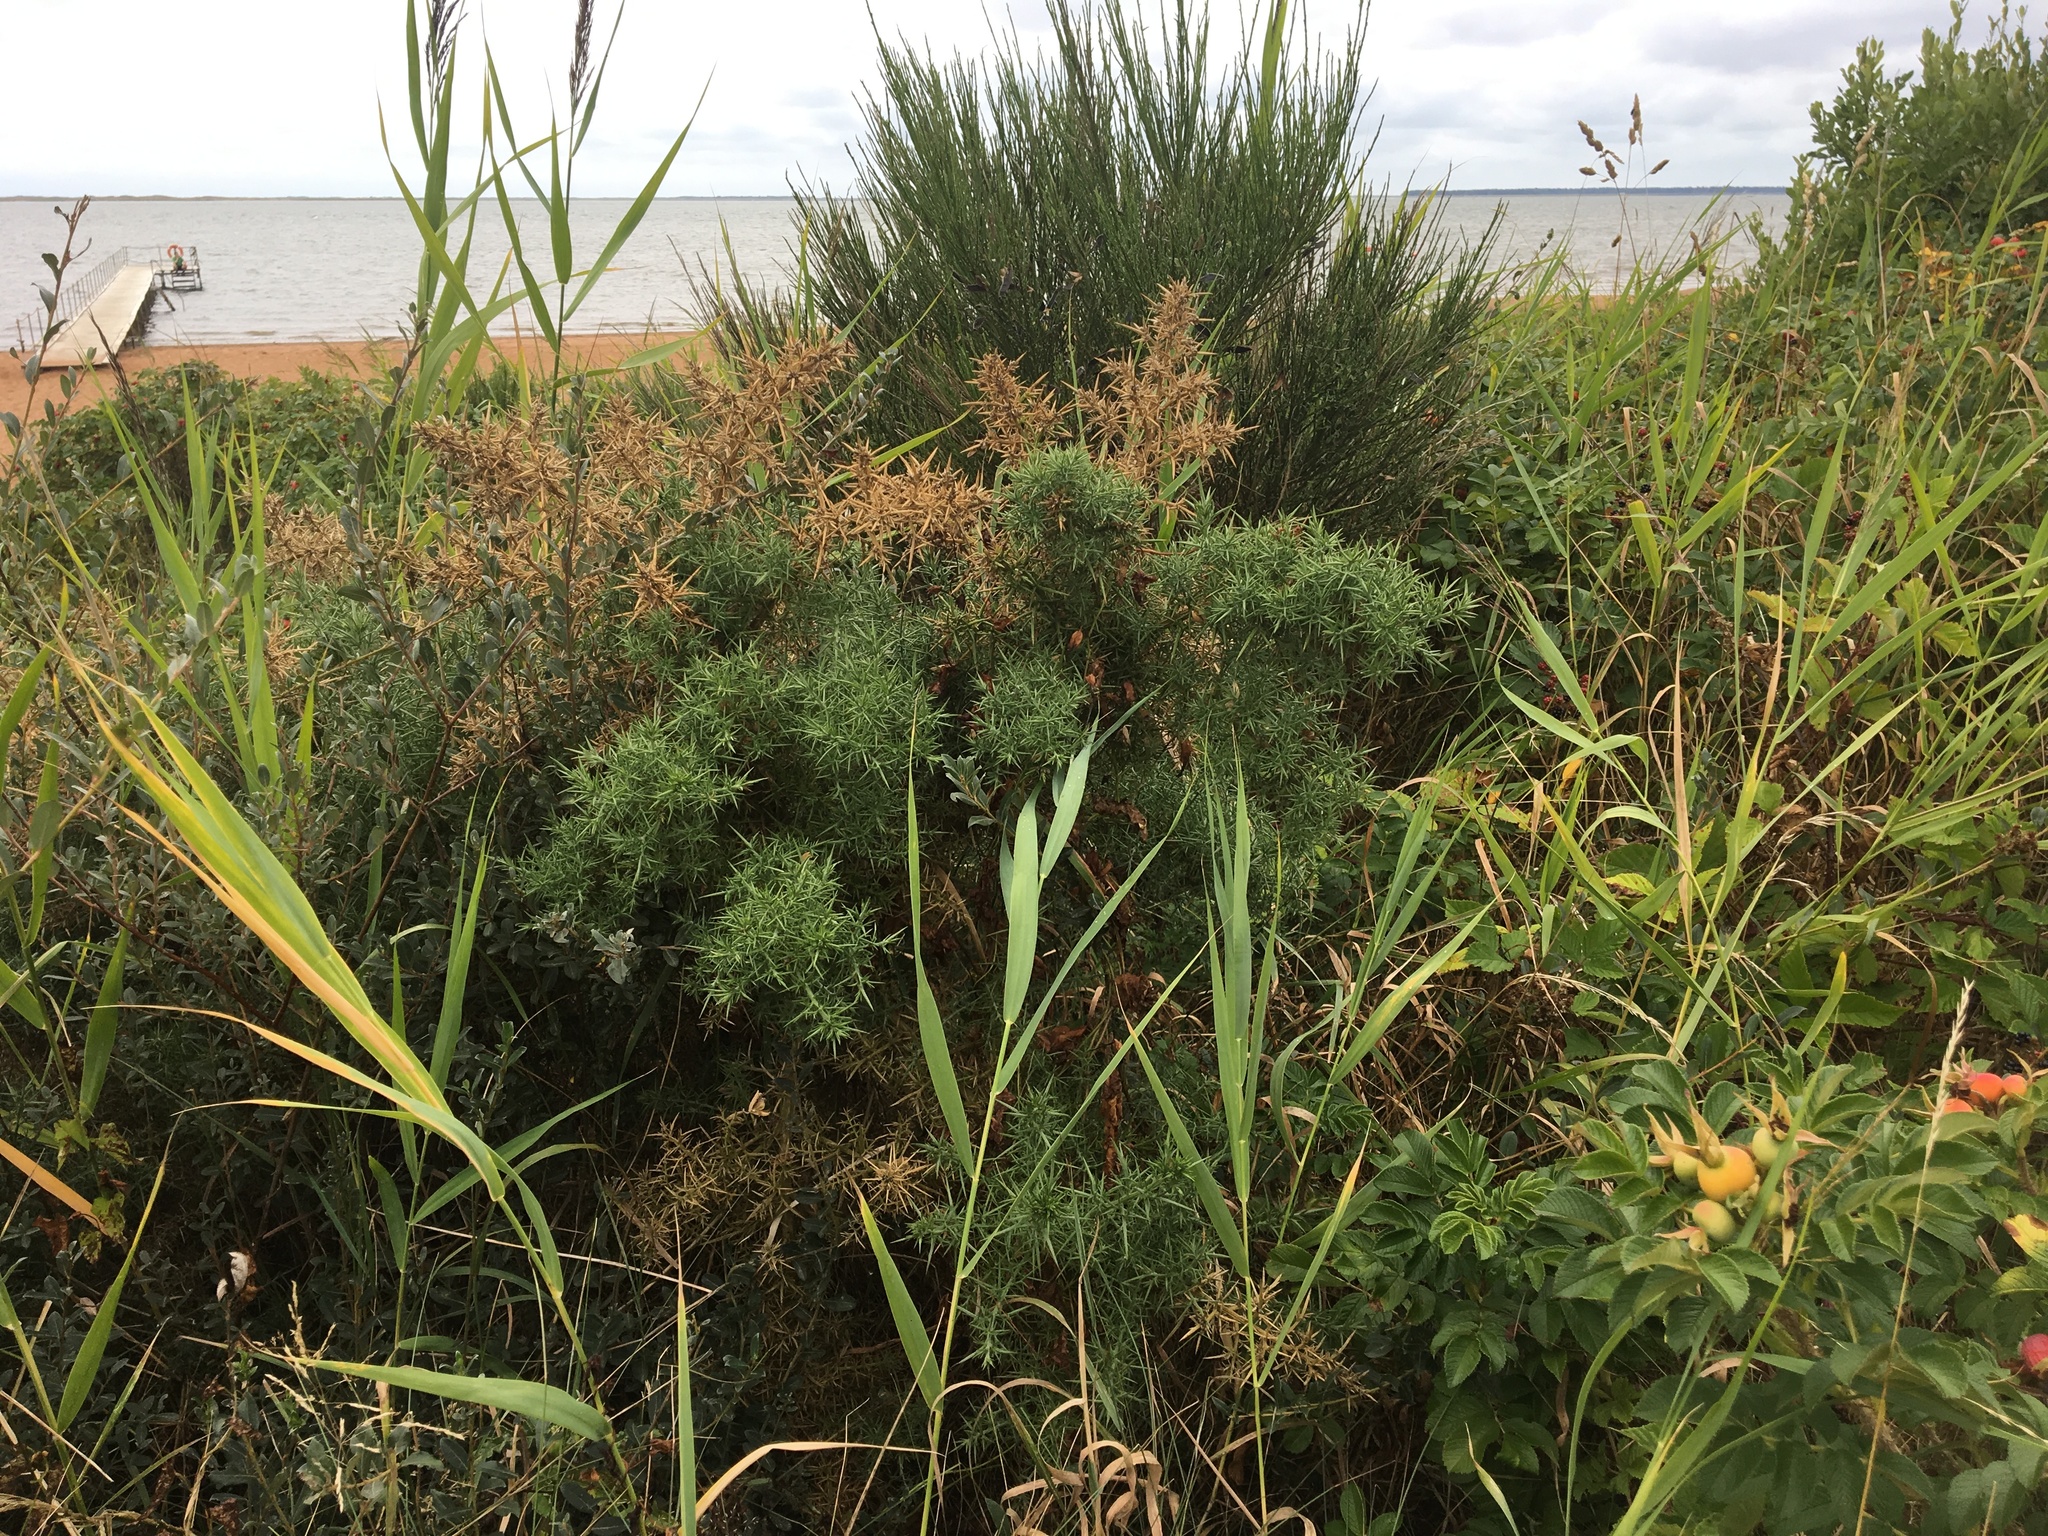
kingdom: Plantae
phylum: Tracheophyta
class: Magnoliopsida
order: Fabales
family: Fabaceae
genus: Ulex
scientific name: Ulex europaeus
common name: Common gorse
